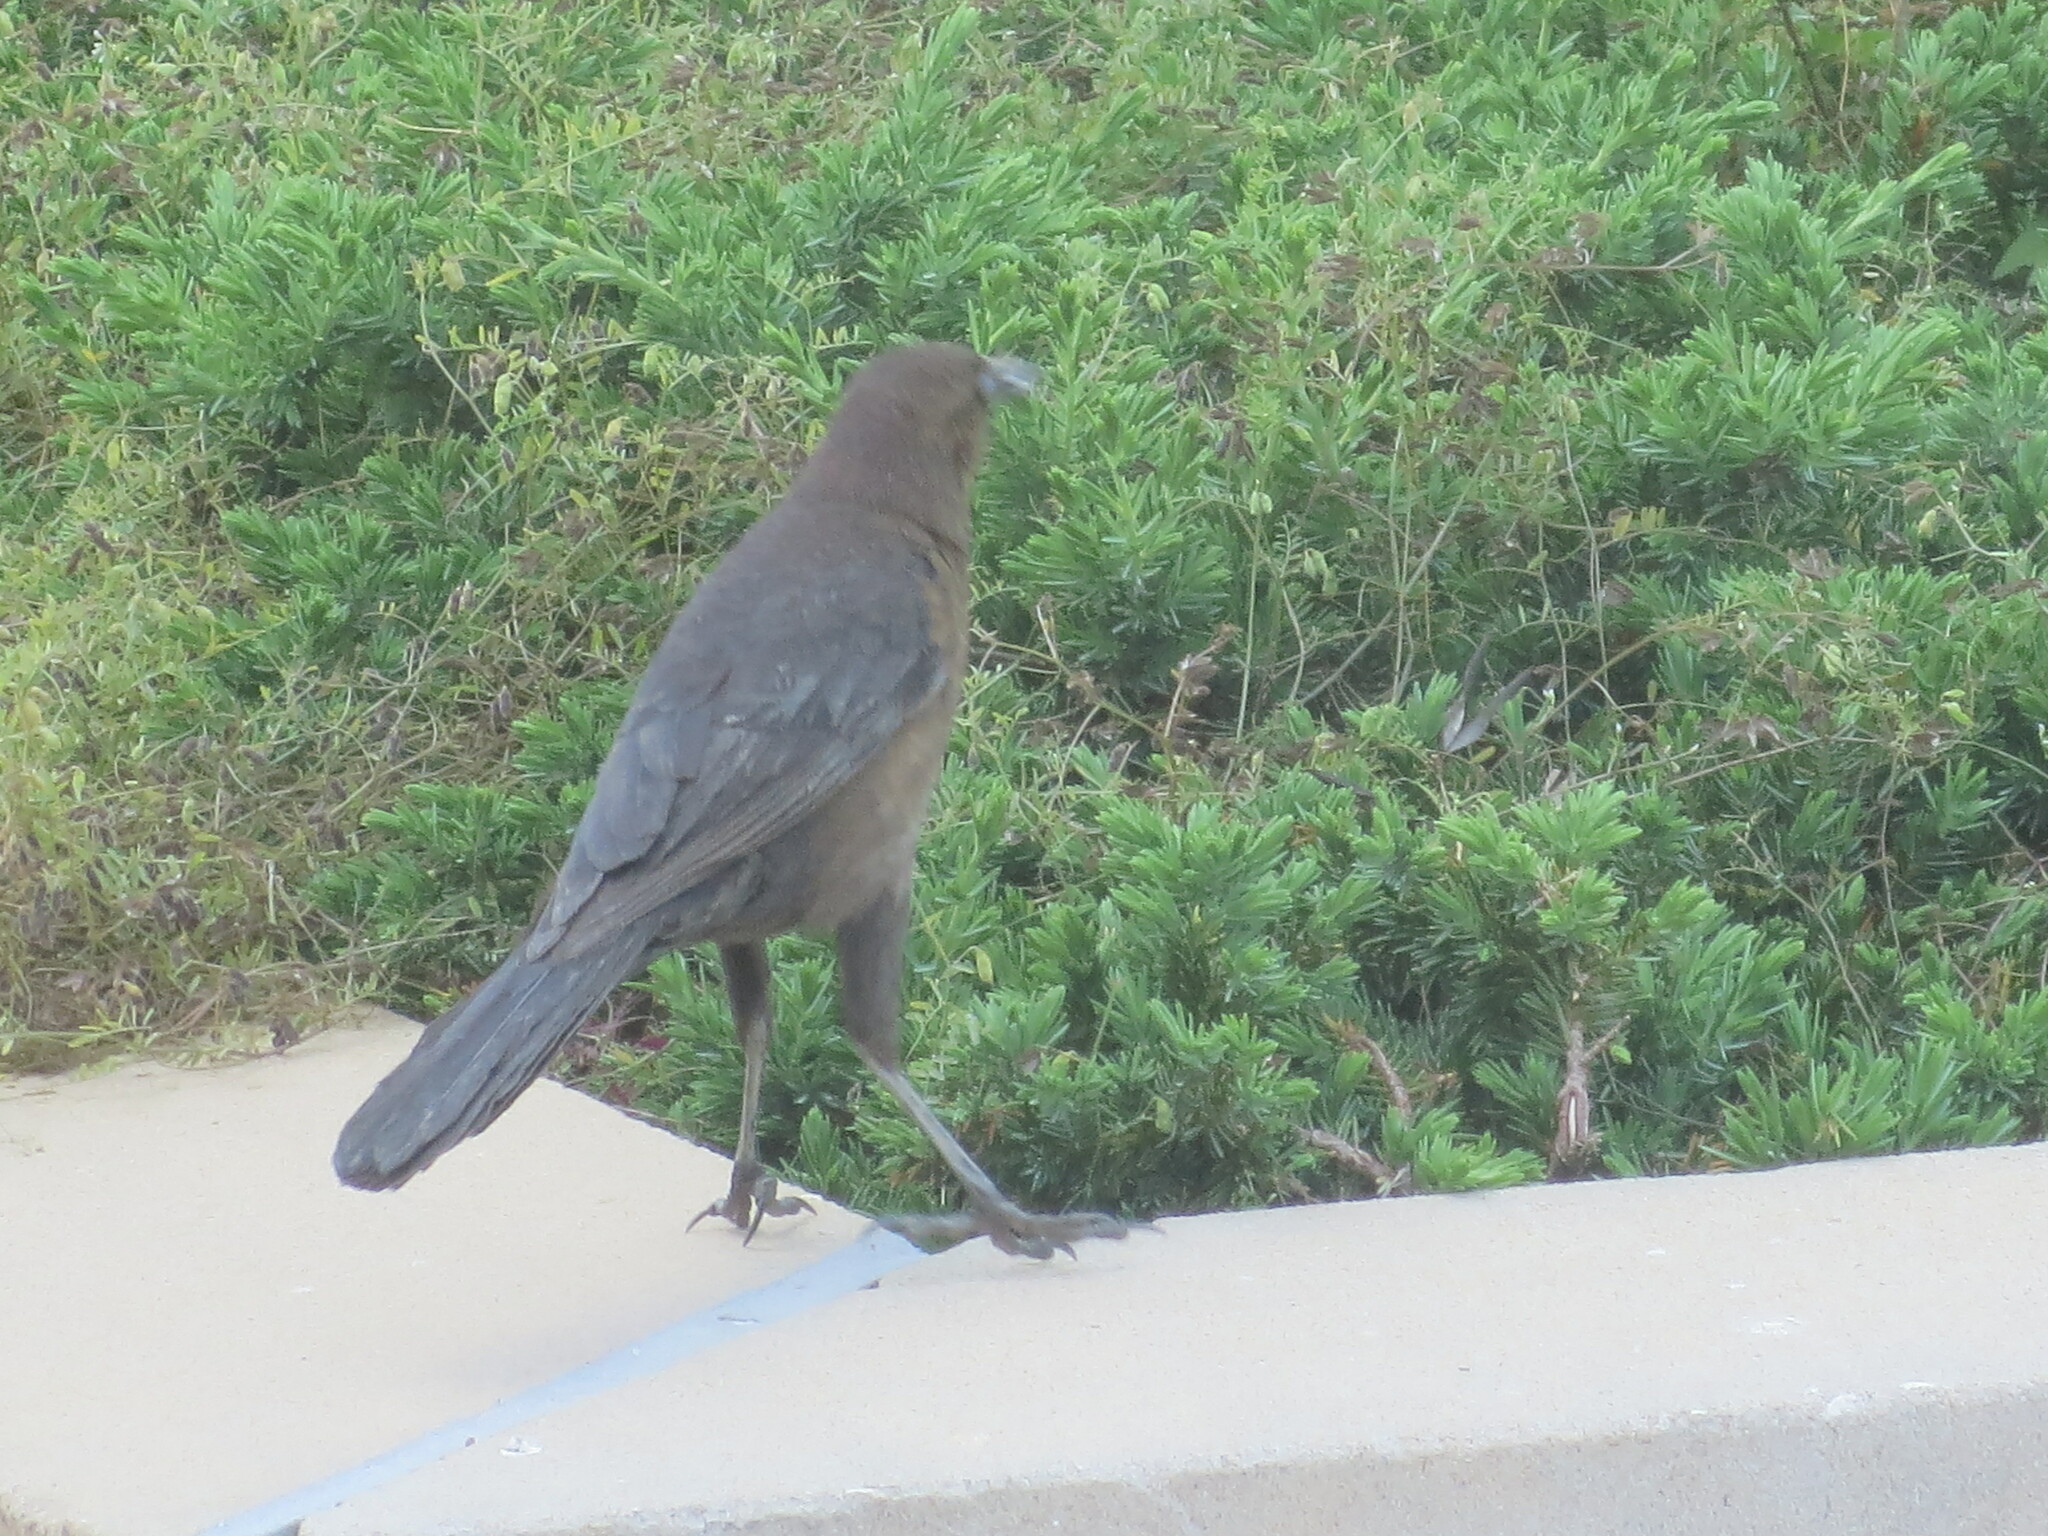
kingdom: Animalia
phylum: Chordata
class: Aves
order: Passeriformes
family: Icteridae
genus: Quiscalus
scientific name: Quiscalus major
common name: Boat-tailed grackle
